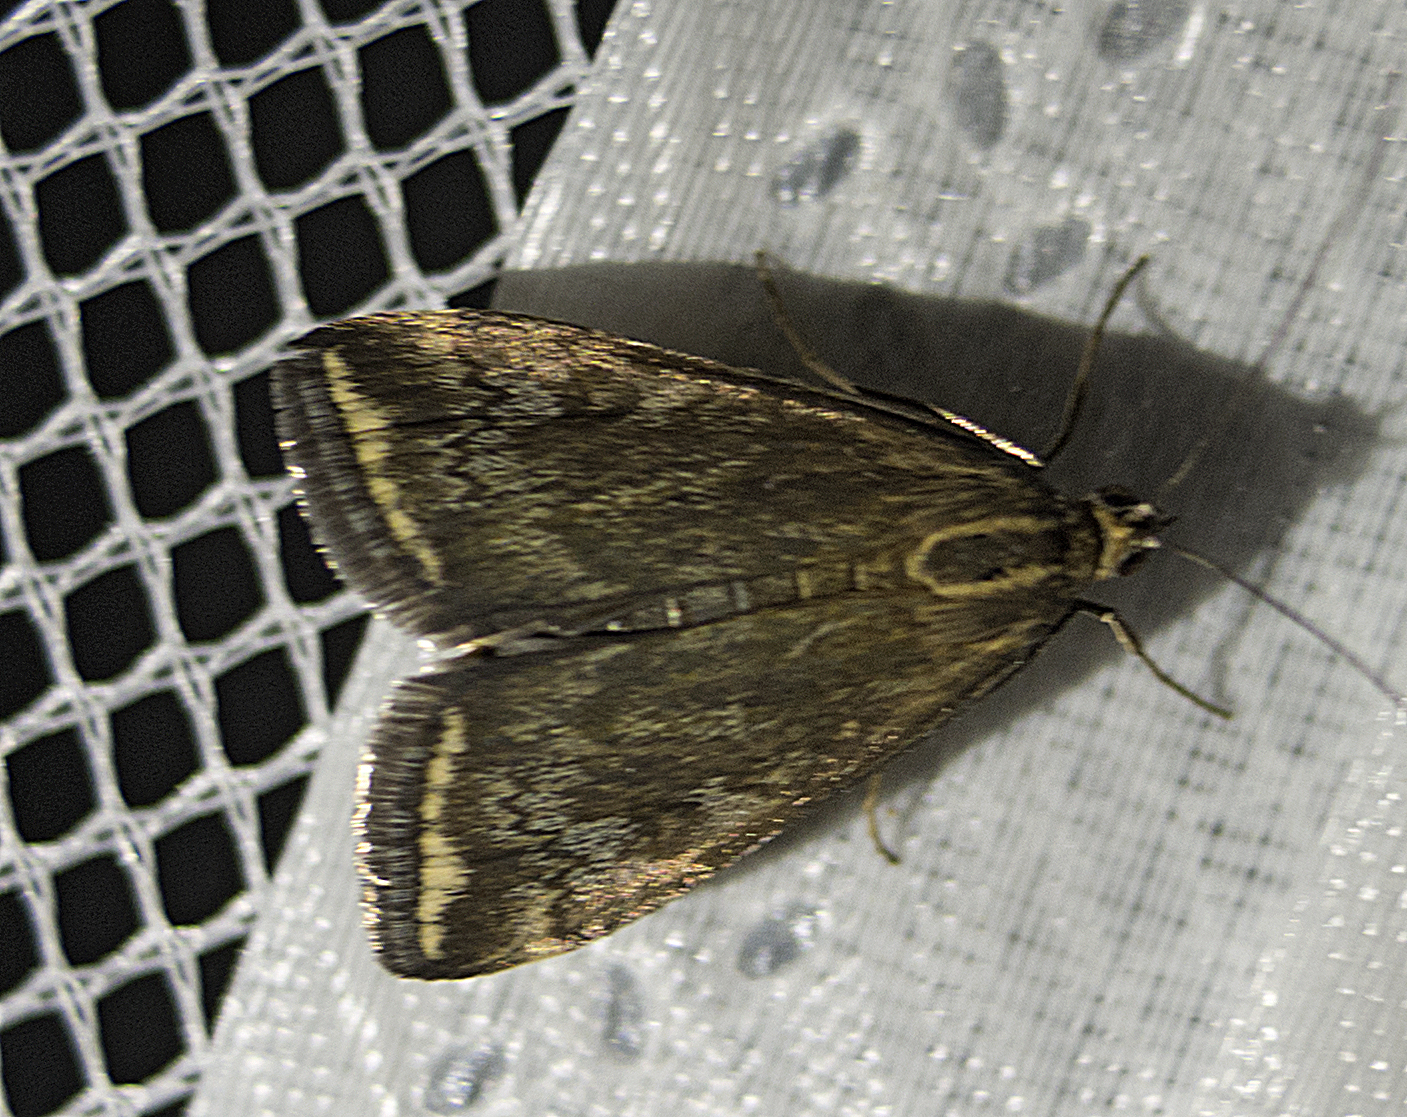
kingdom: Animalia
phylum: Arthropoda
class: Insecta
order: Lepidoptera
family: Crambidae
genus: Loxostege
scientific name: Loxostege sticticalis
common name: Crambid moth
